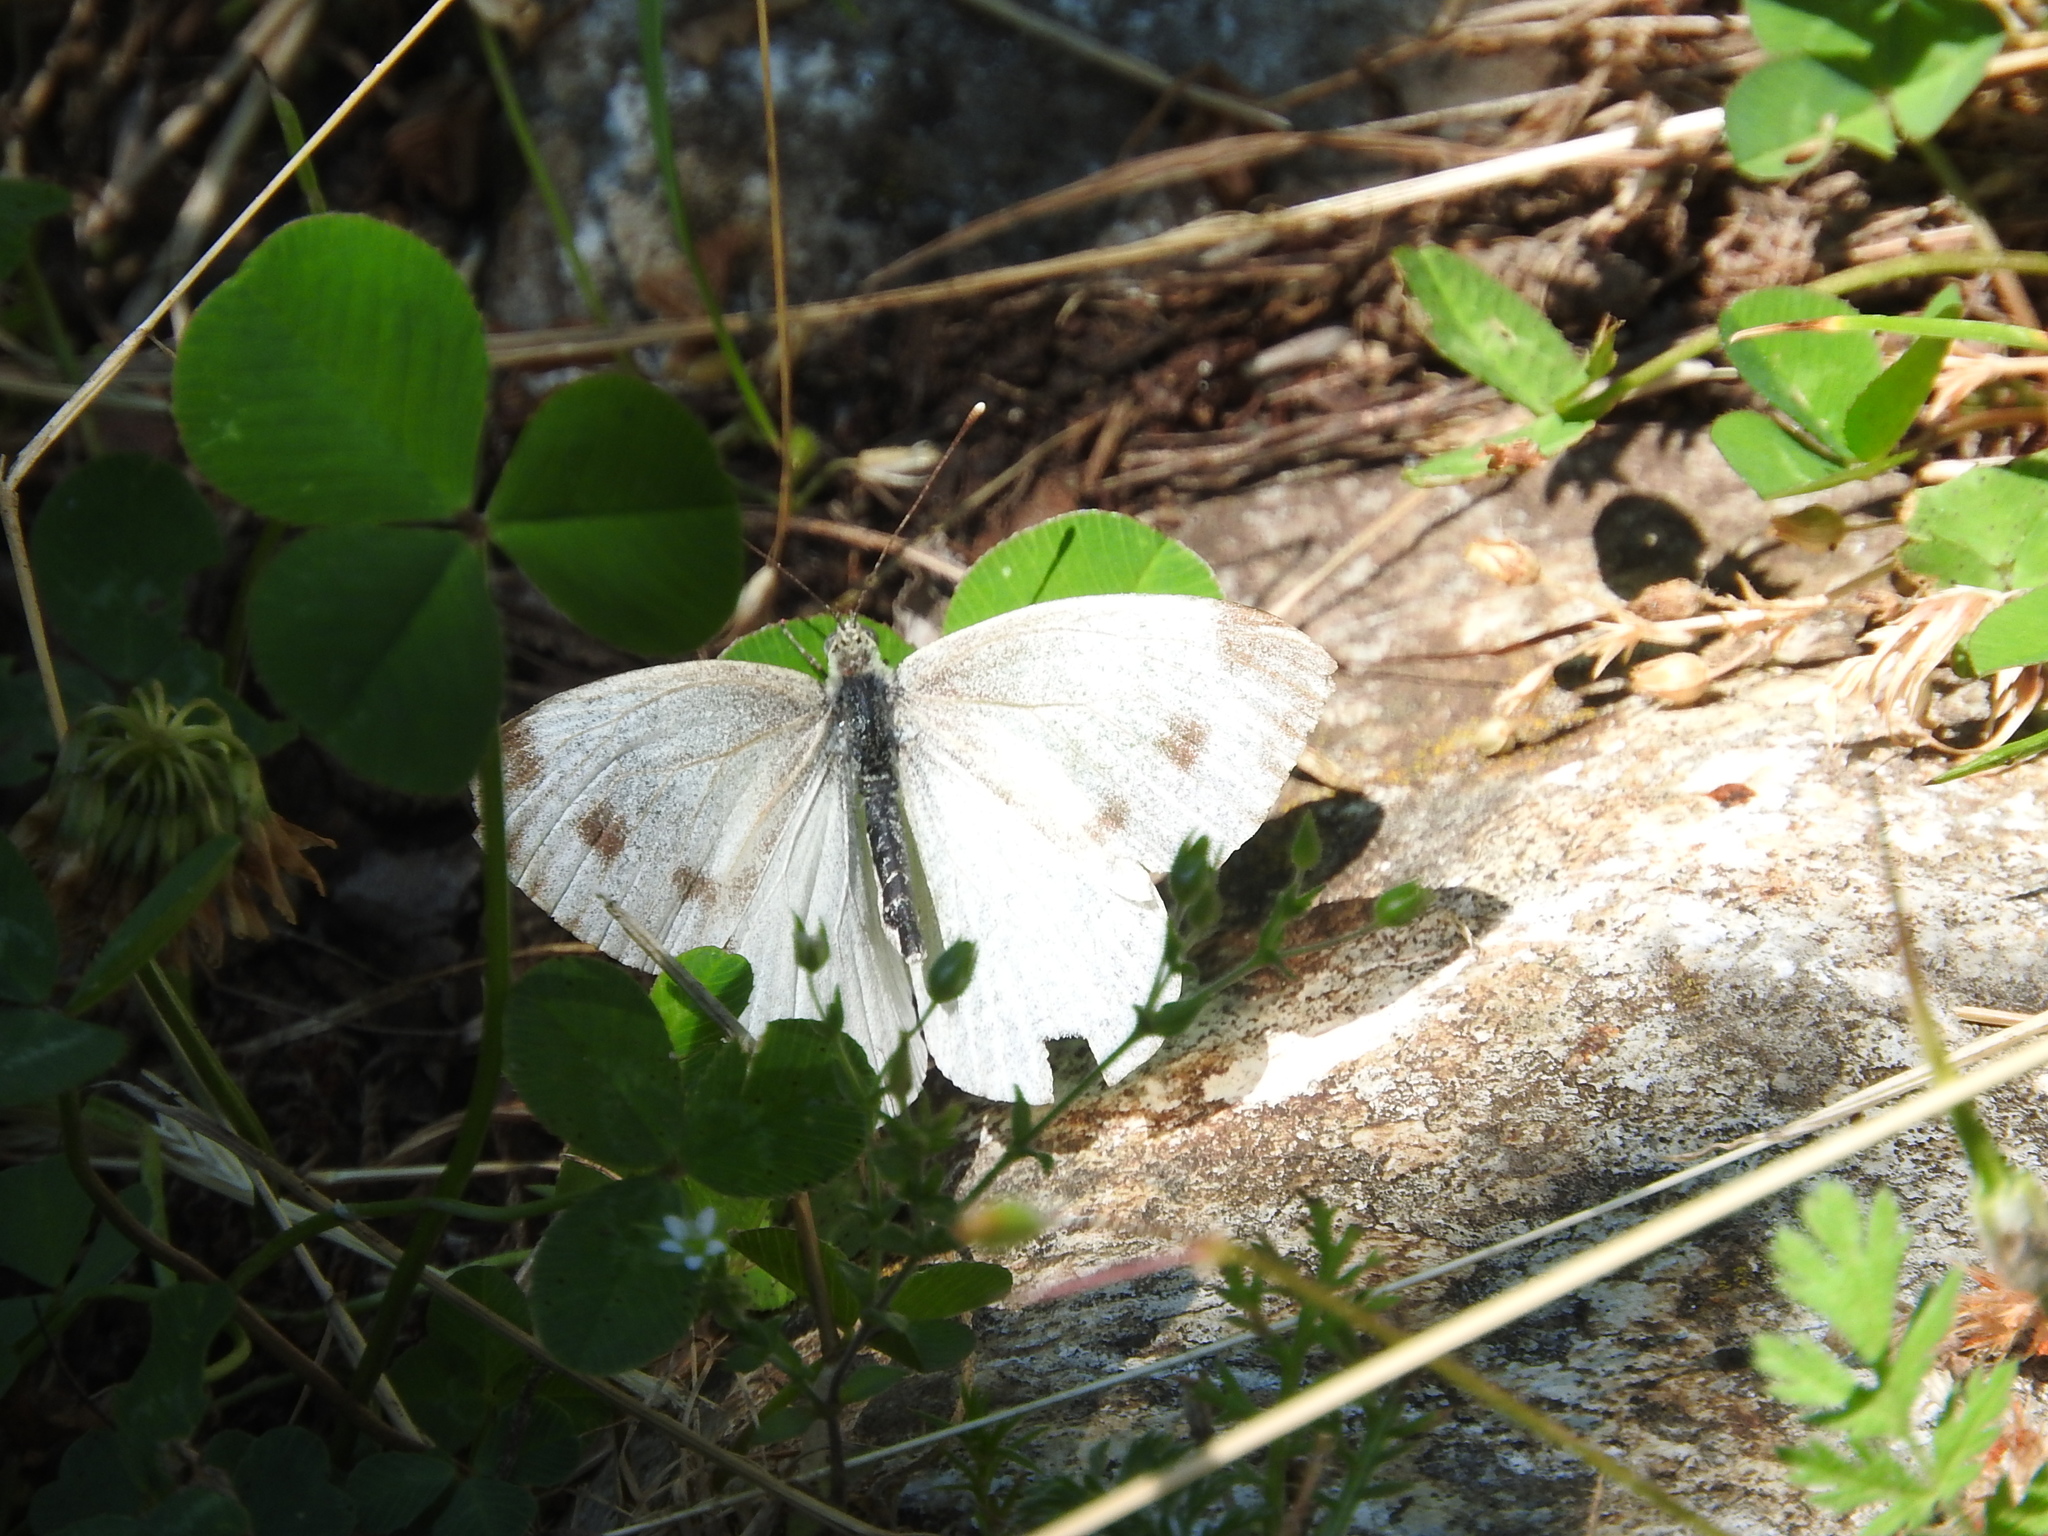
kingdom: Animalia
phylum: Arthropoda
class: Insecta
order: Lepidoptera
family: Pieridae
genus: Pieris
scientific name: Pieris napi
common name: Green-veined white
